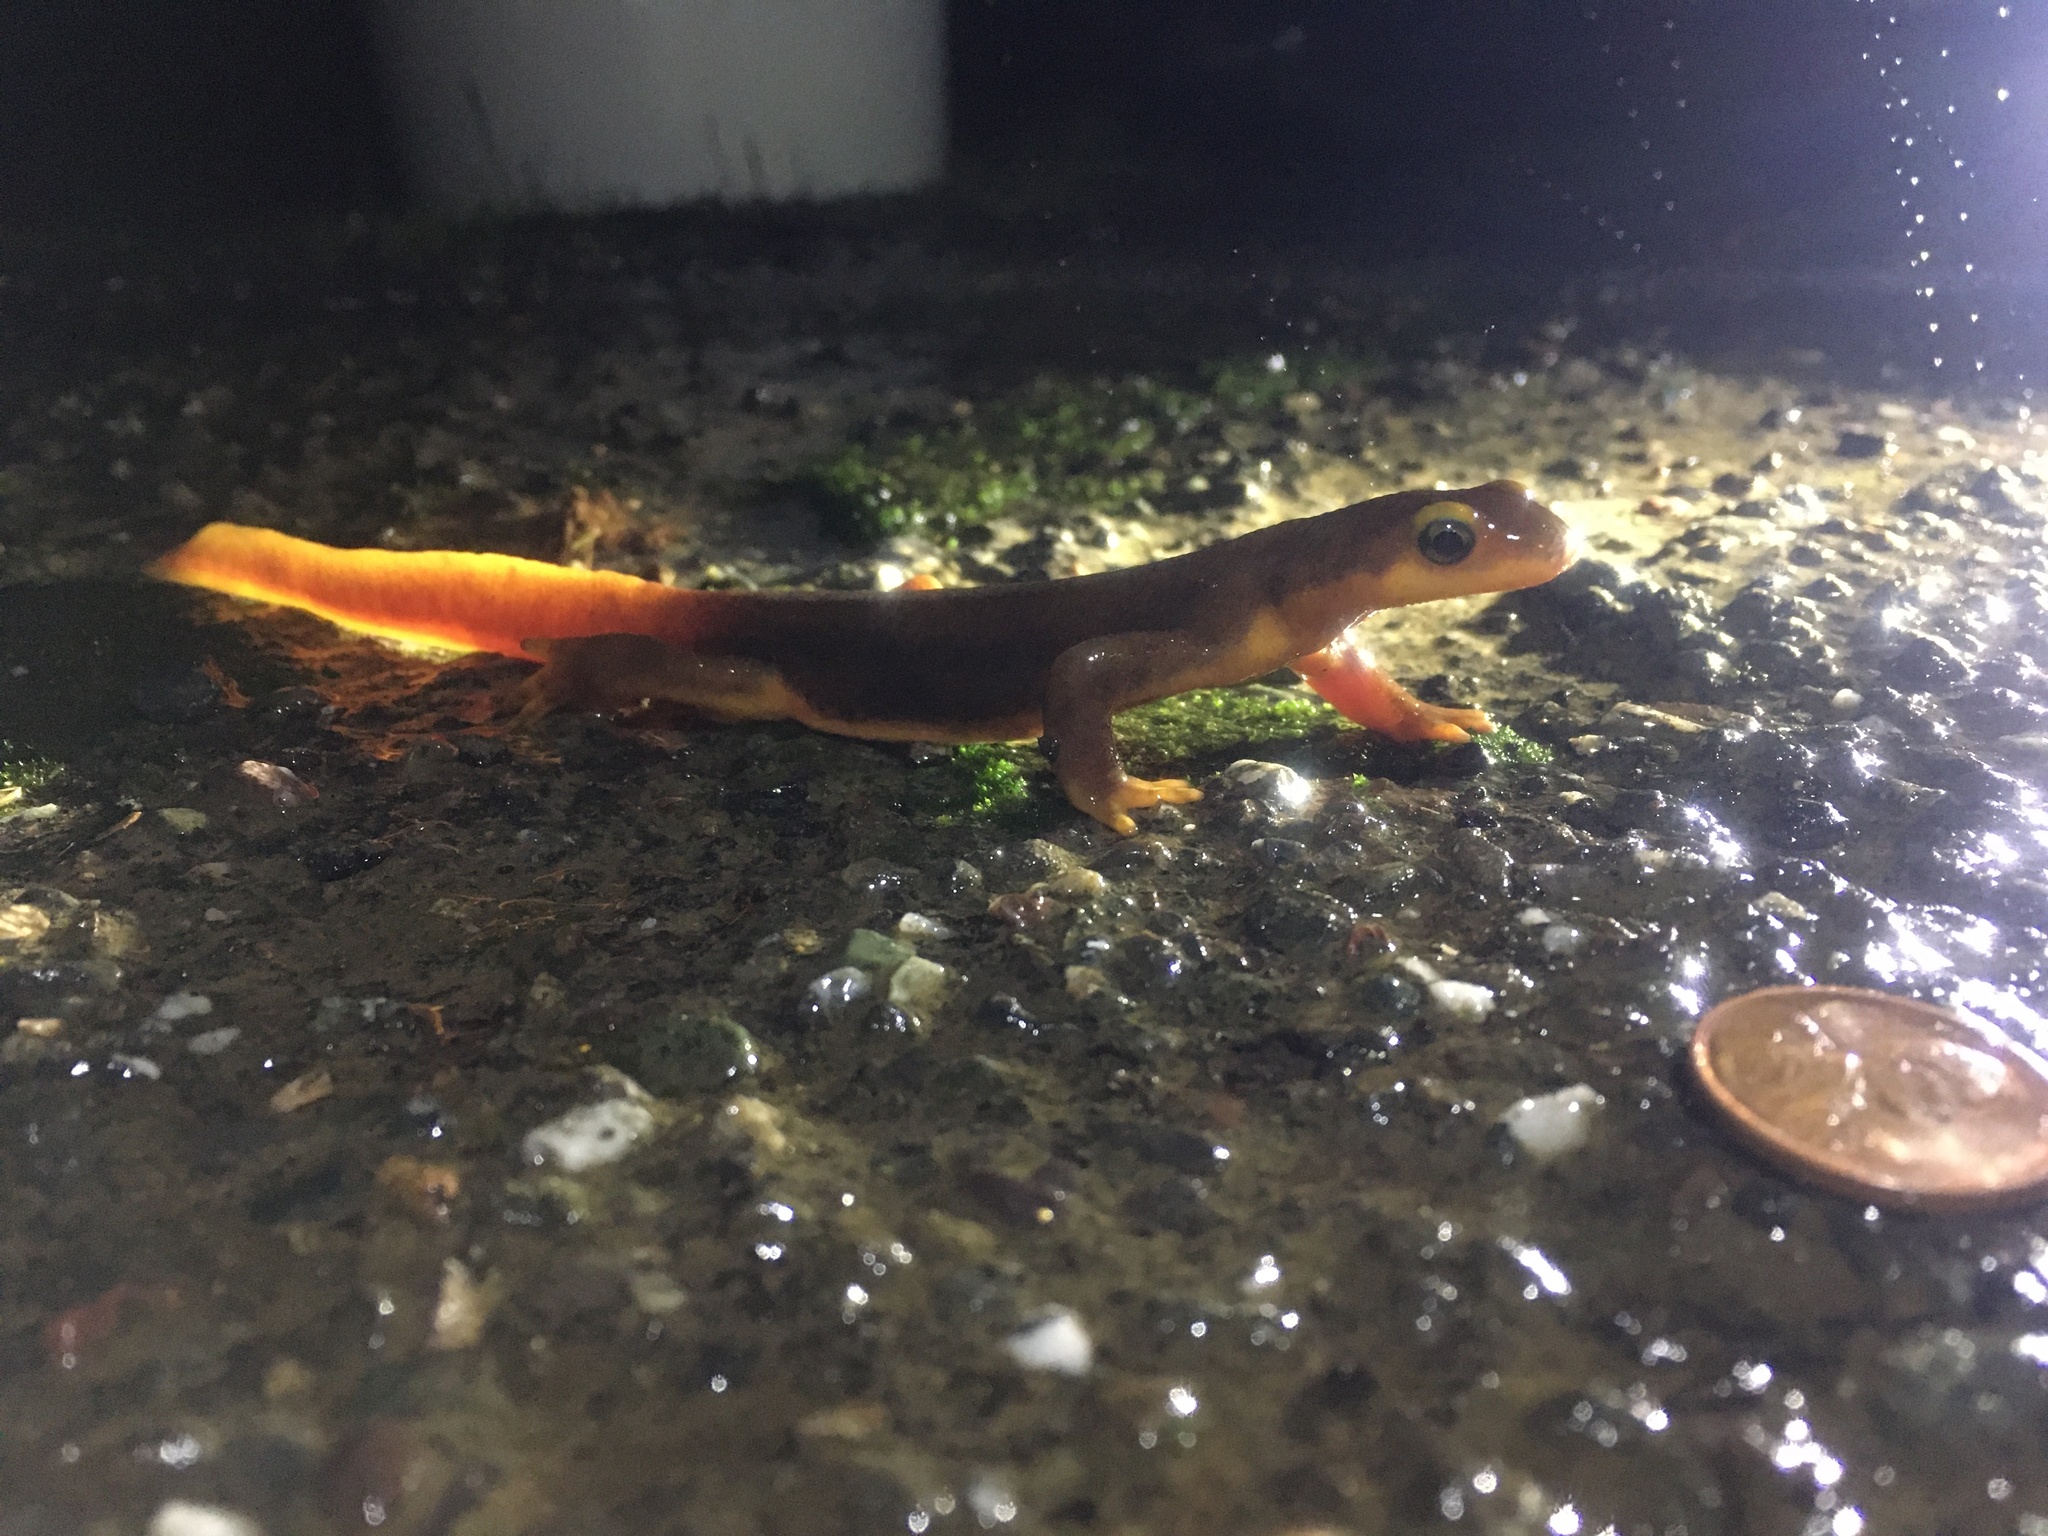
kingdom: Animalia
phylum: Chordata
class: Amphibia
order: Caudata
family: Salamandridae
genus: Taricha
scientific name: Taricha torosa
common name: California newt
